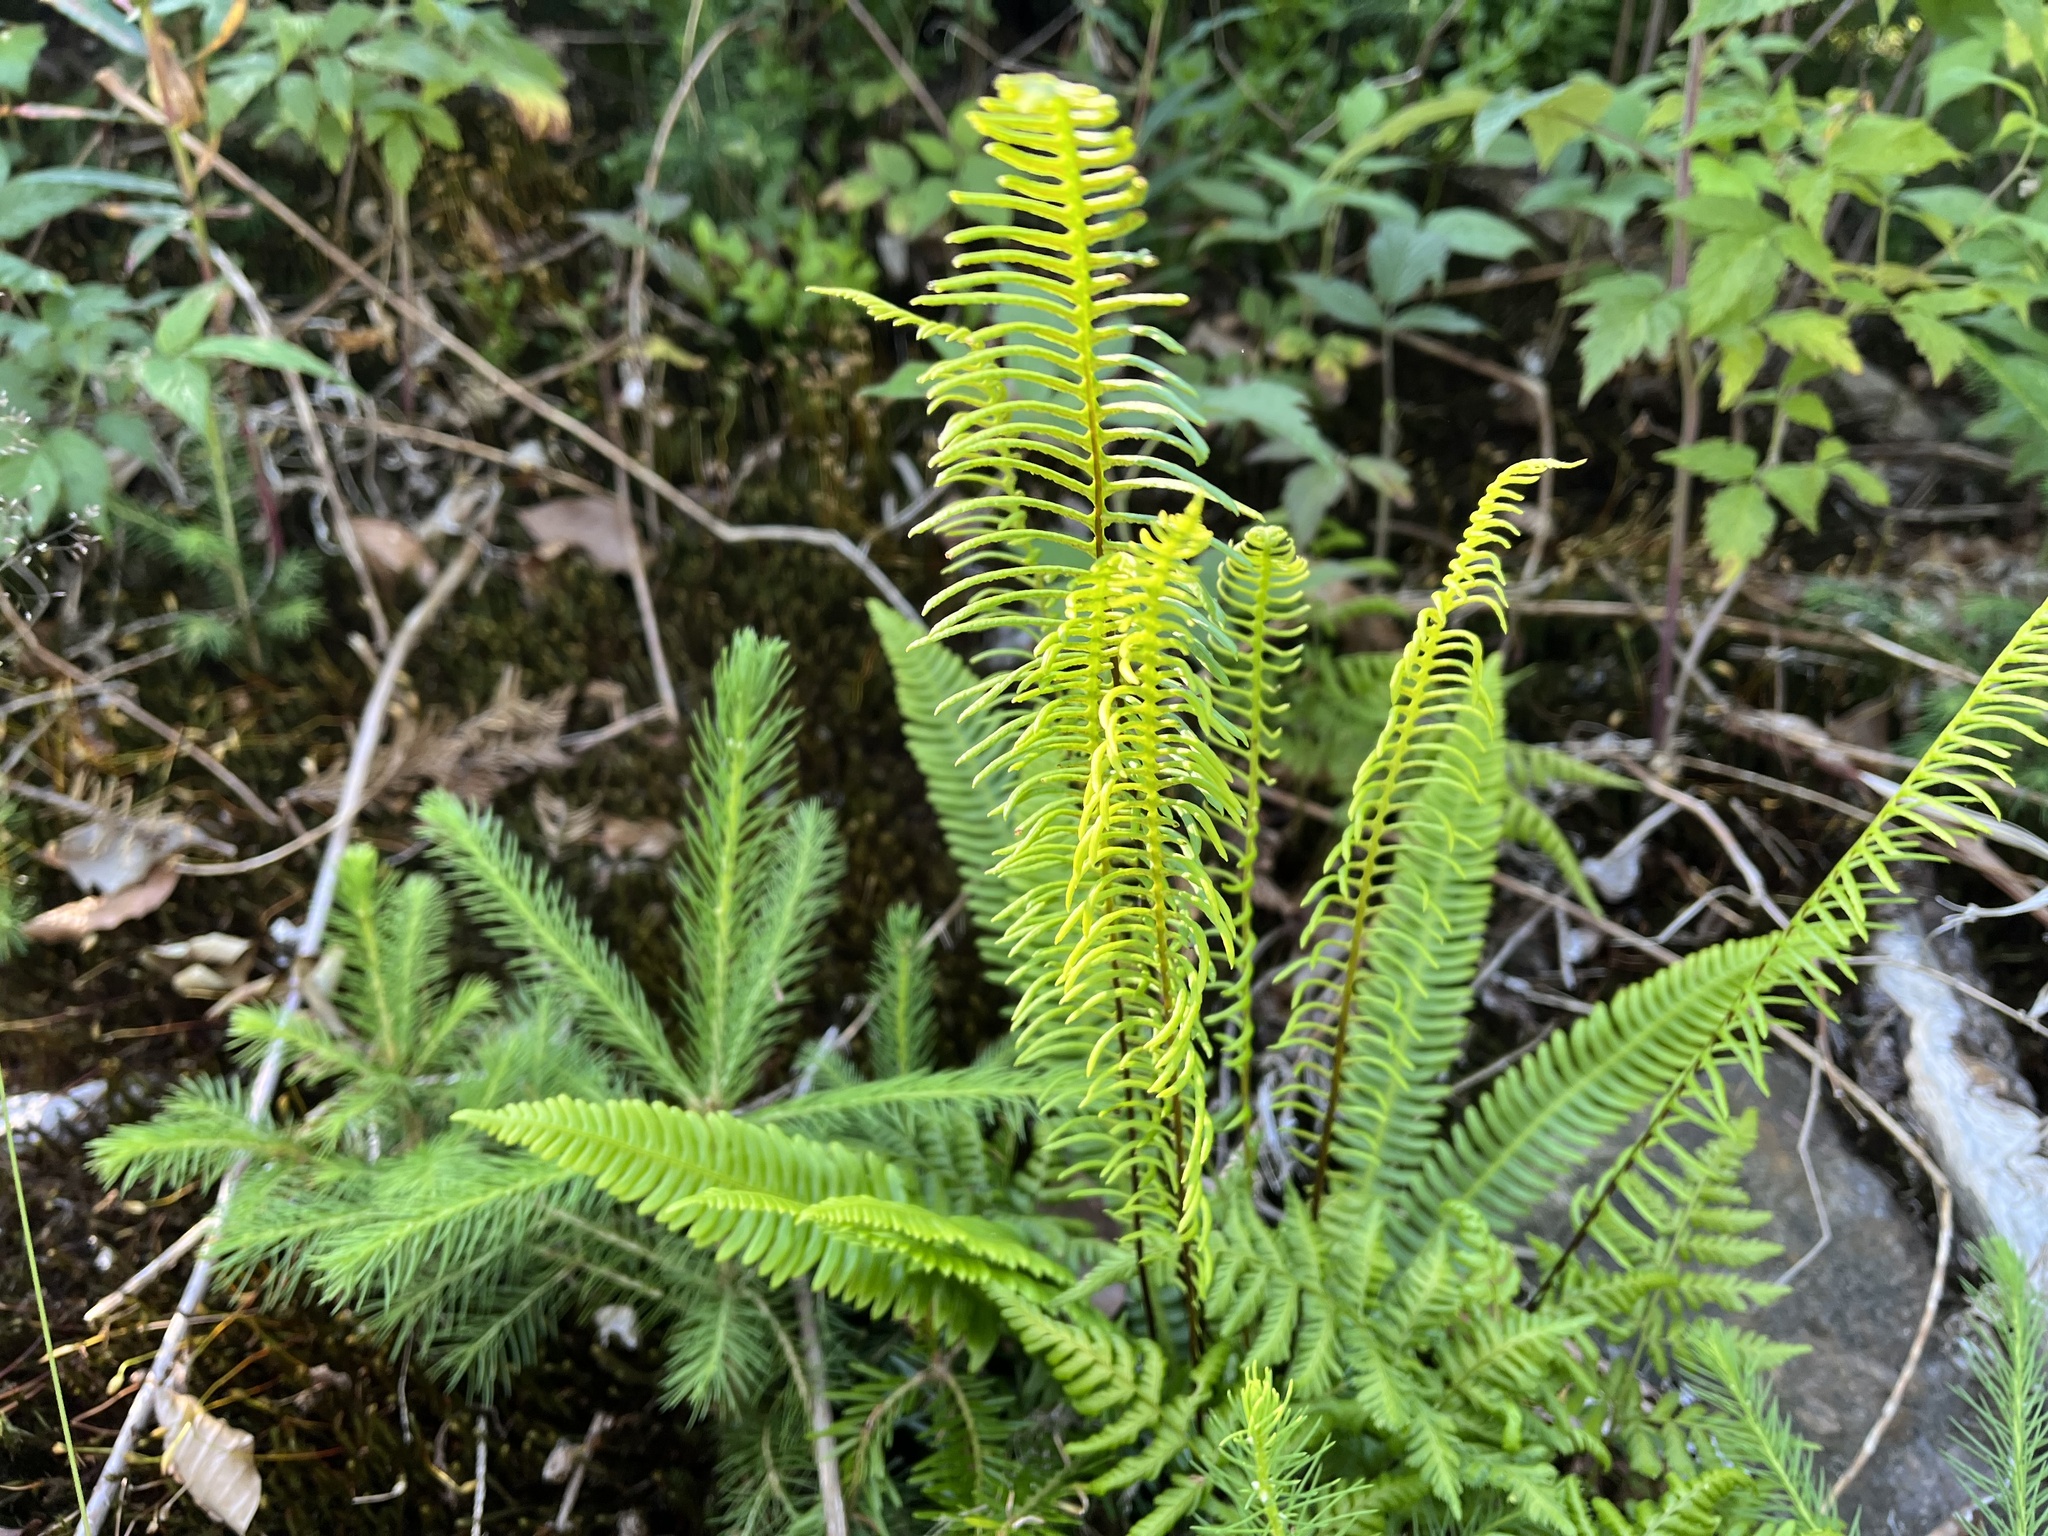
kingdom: Plantae
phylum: Tracheophyta
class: Polypodiopsida
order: Polypodiales
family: Blechnaceae
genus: Struthiopteris
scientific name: Struthiopteris spicant
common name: Deer fern
